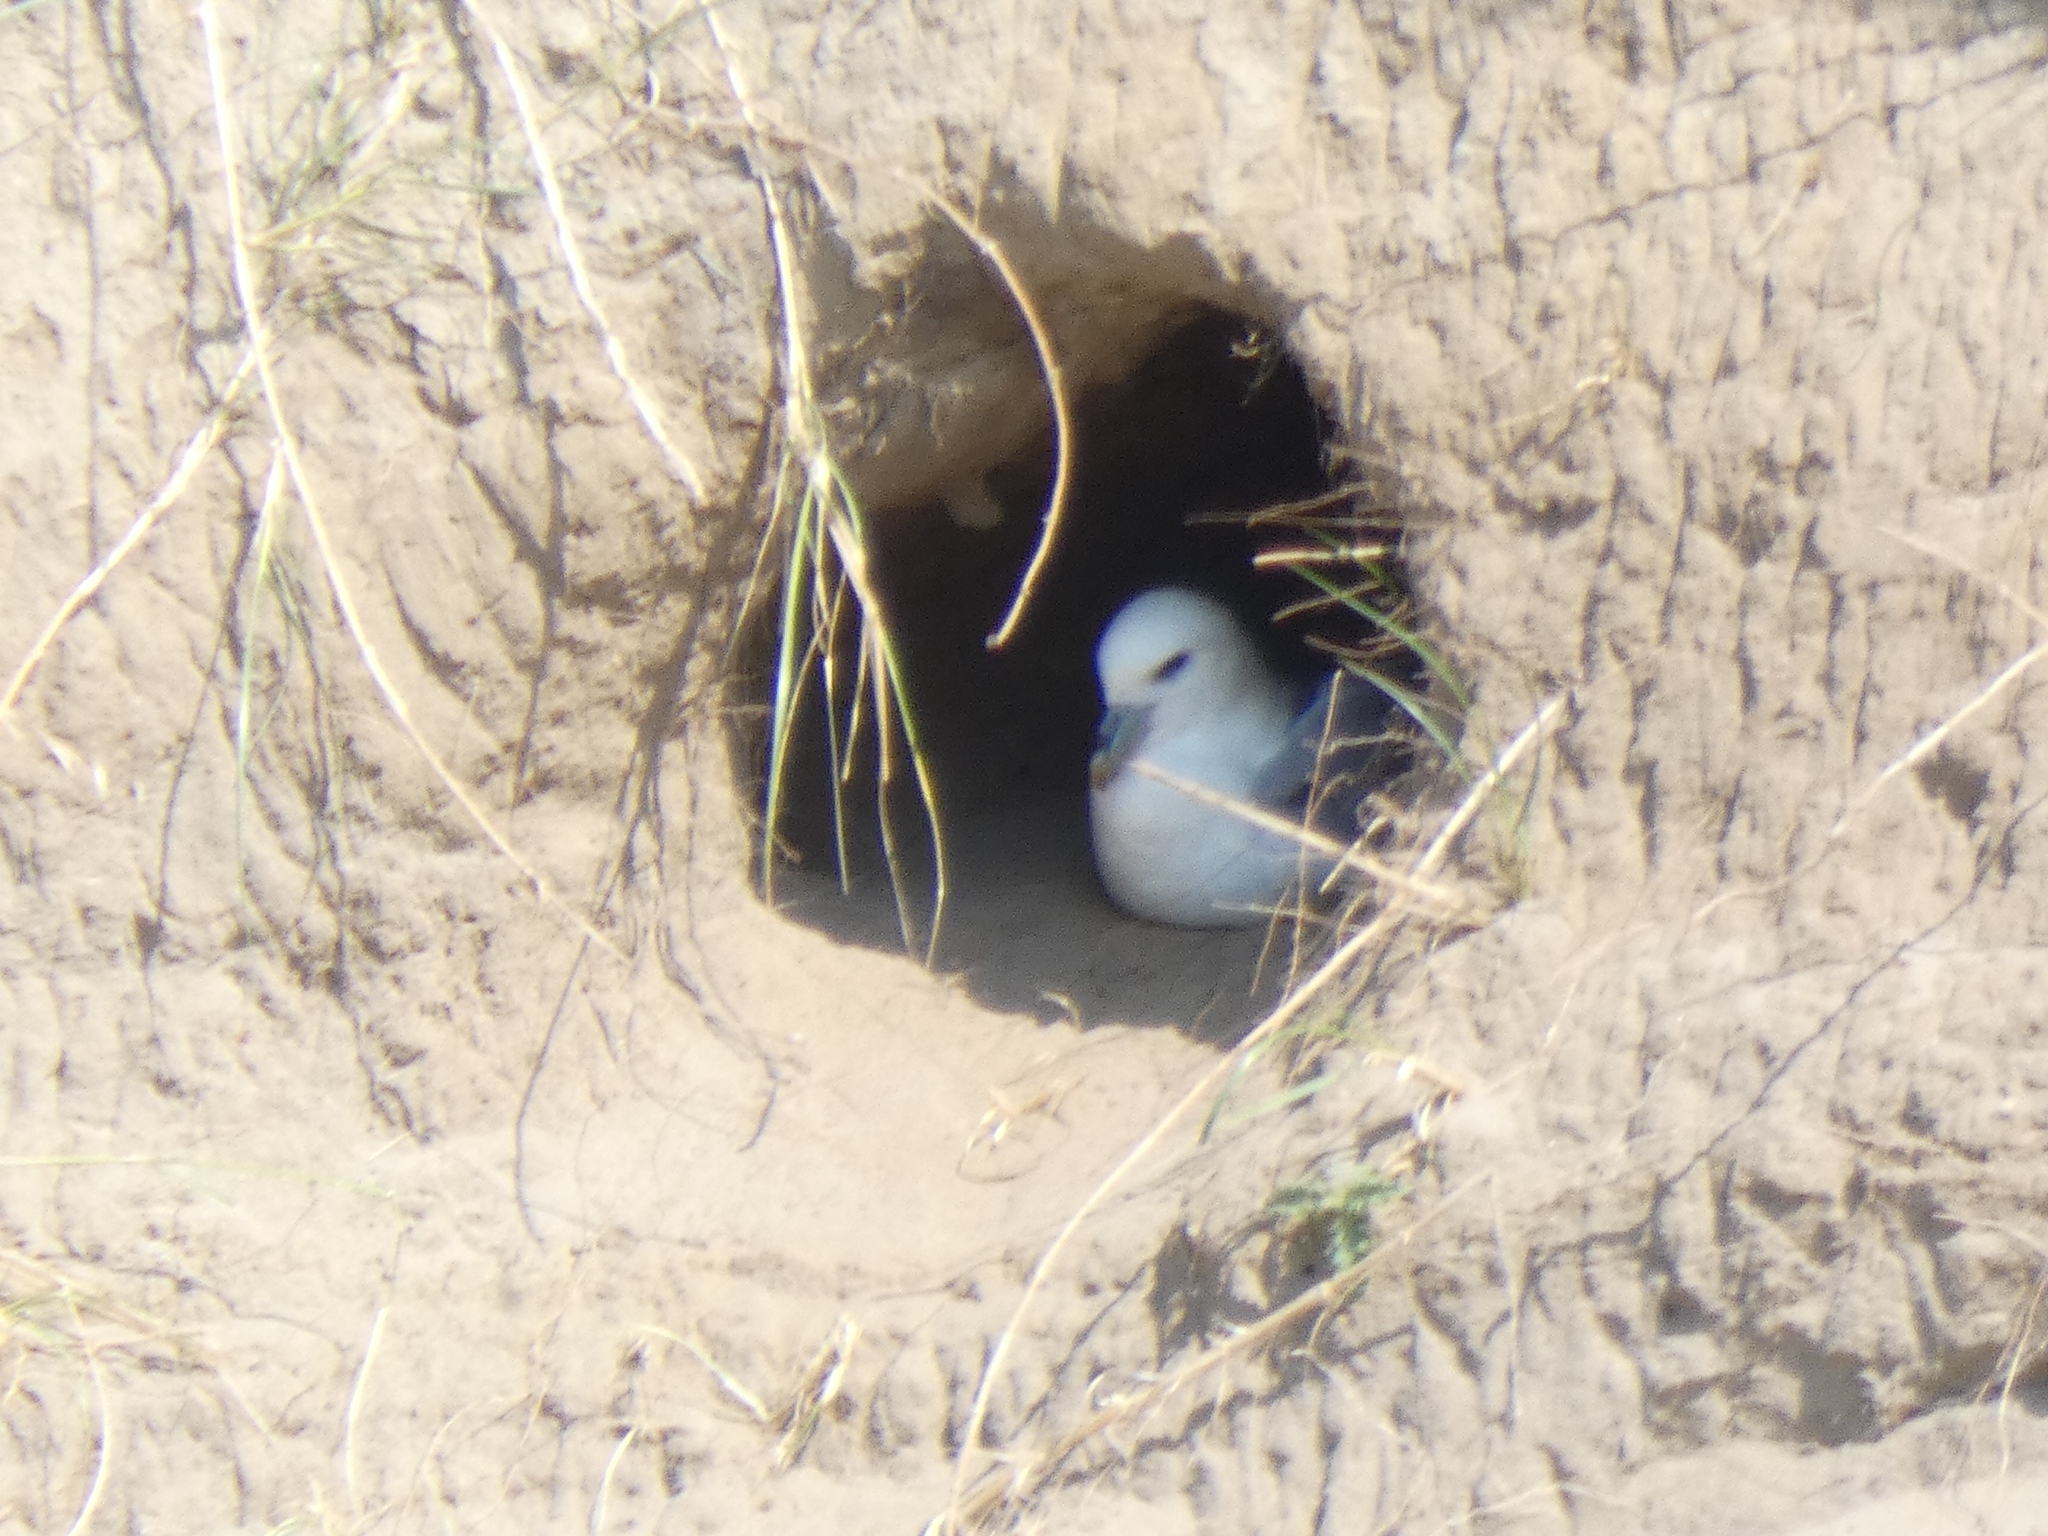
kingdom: Animalia
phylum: Chordata
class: Aves
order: Procellariiformes
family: Procellariidae
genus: Fulmarus
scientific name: Fulmarus glacialis
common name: Northern fulmar
